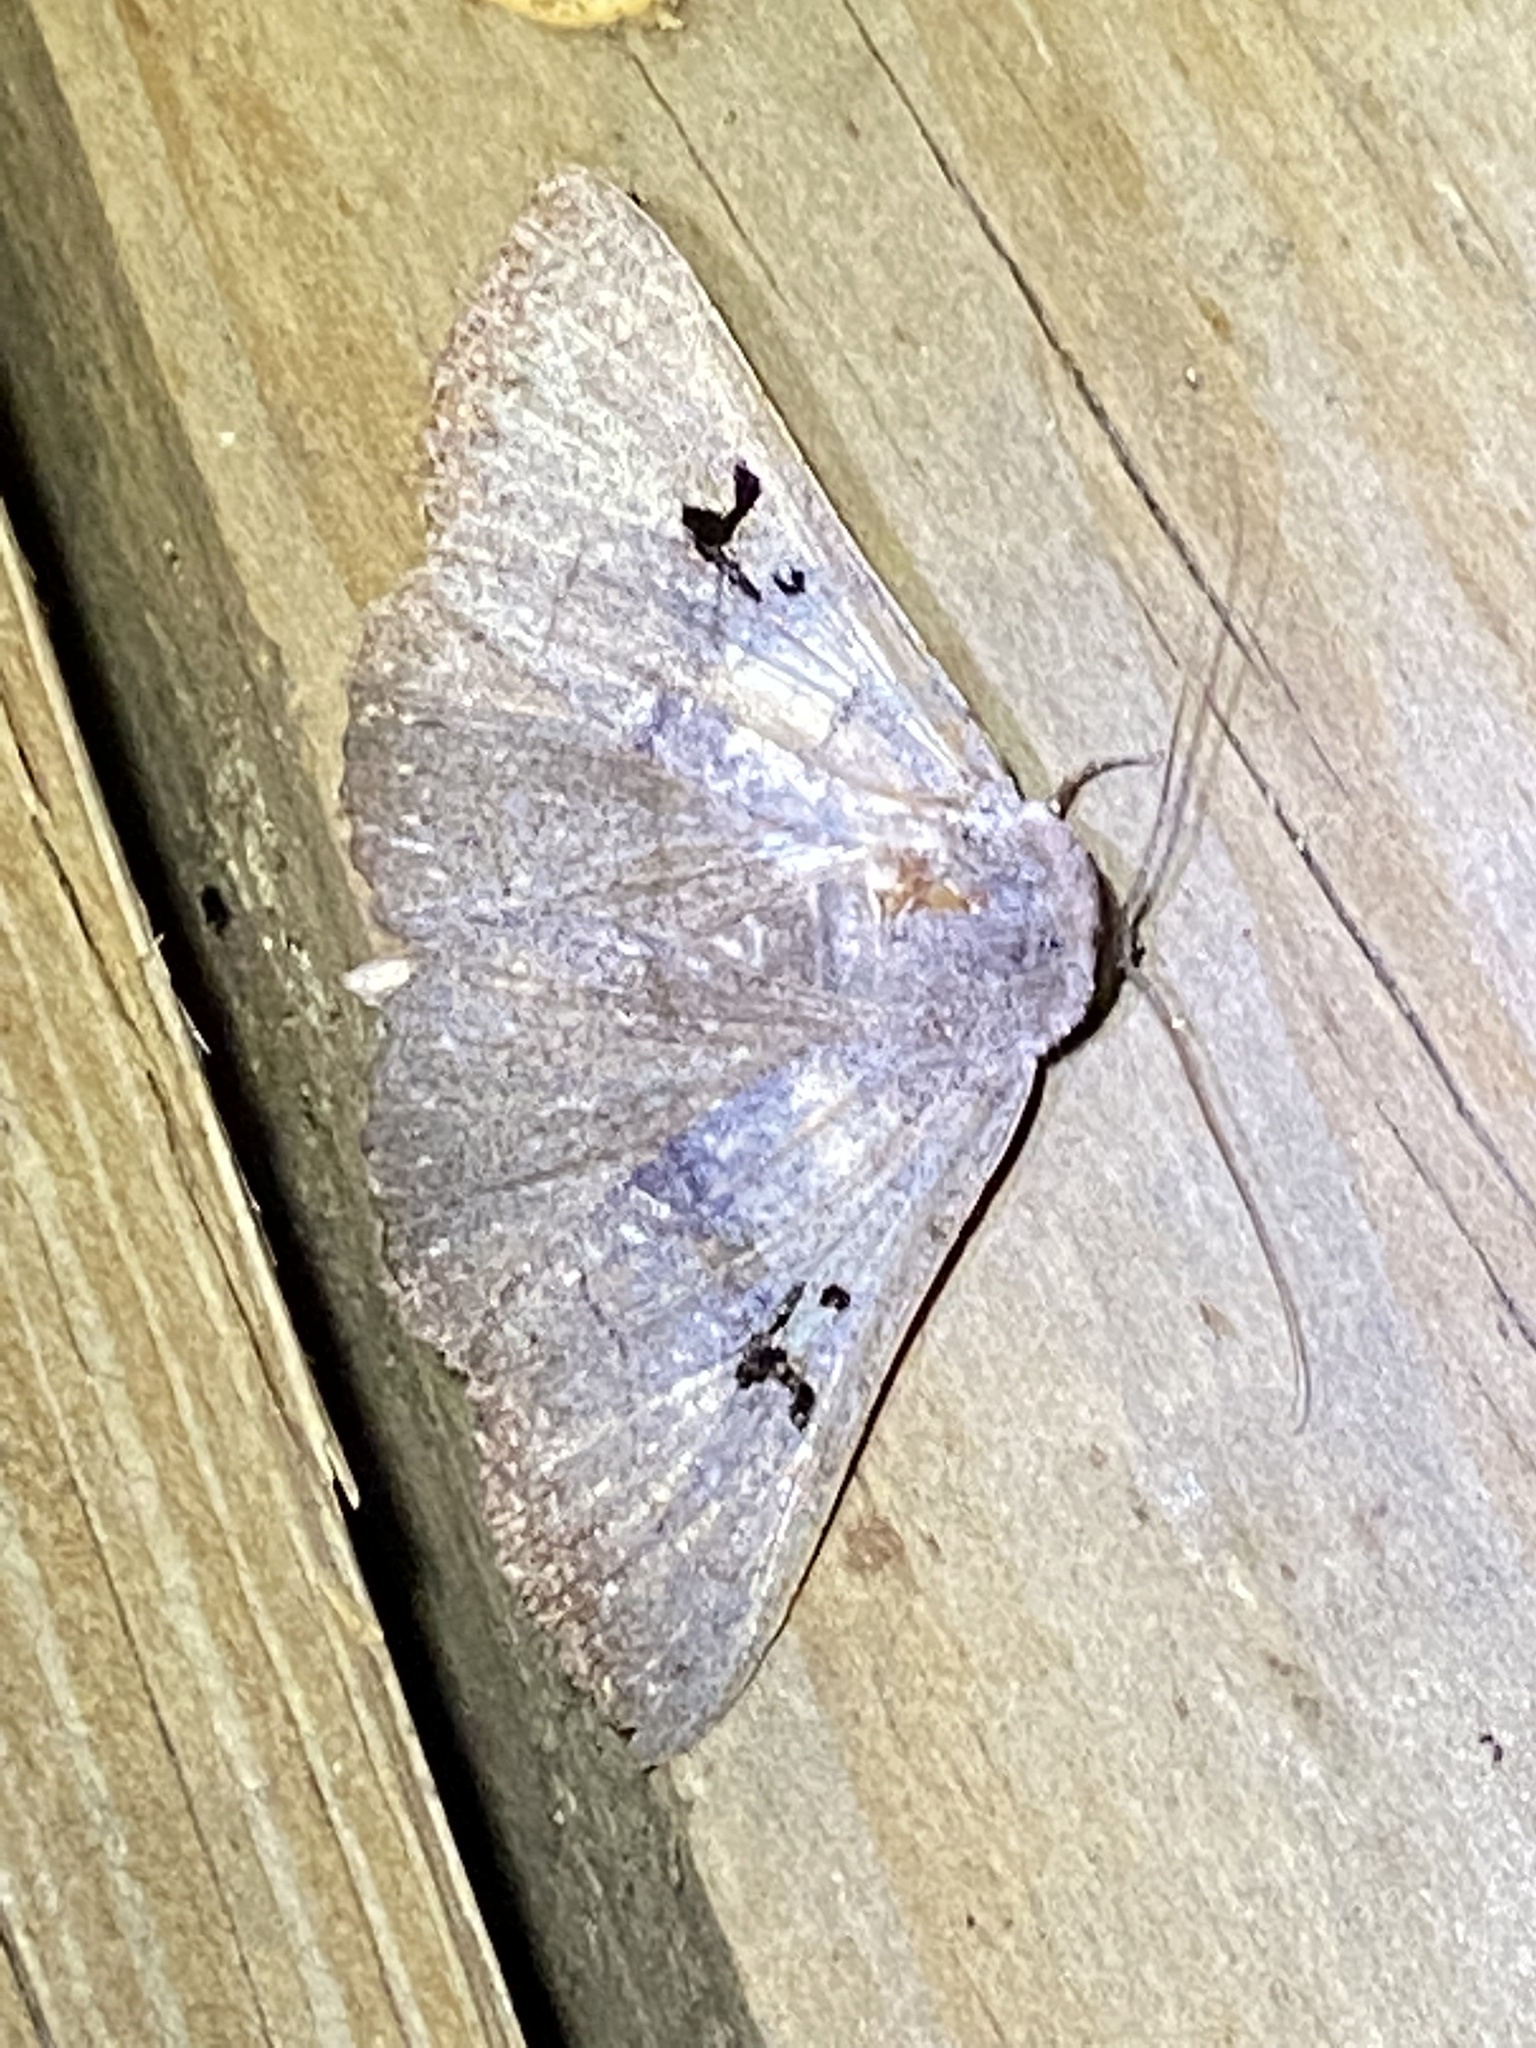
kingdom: Animalia
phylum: Arthropoda
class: Insecta
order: Lepidoptera
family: Erebidae
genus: Panopoda
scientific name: Panopoda carneicosta
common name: Brown panopoda moth
